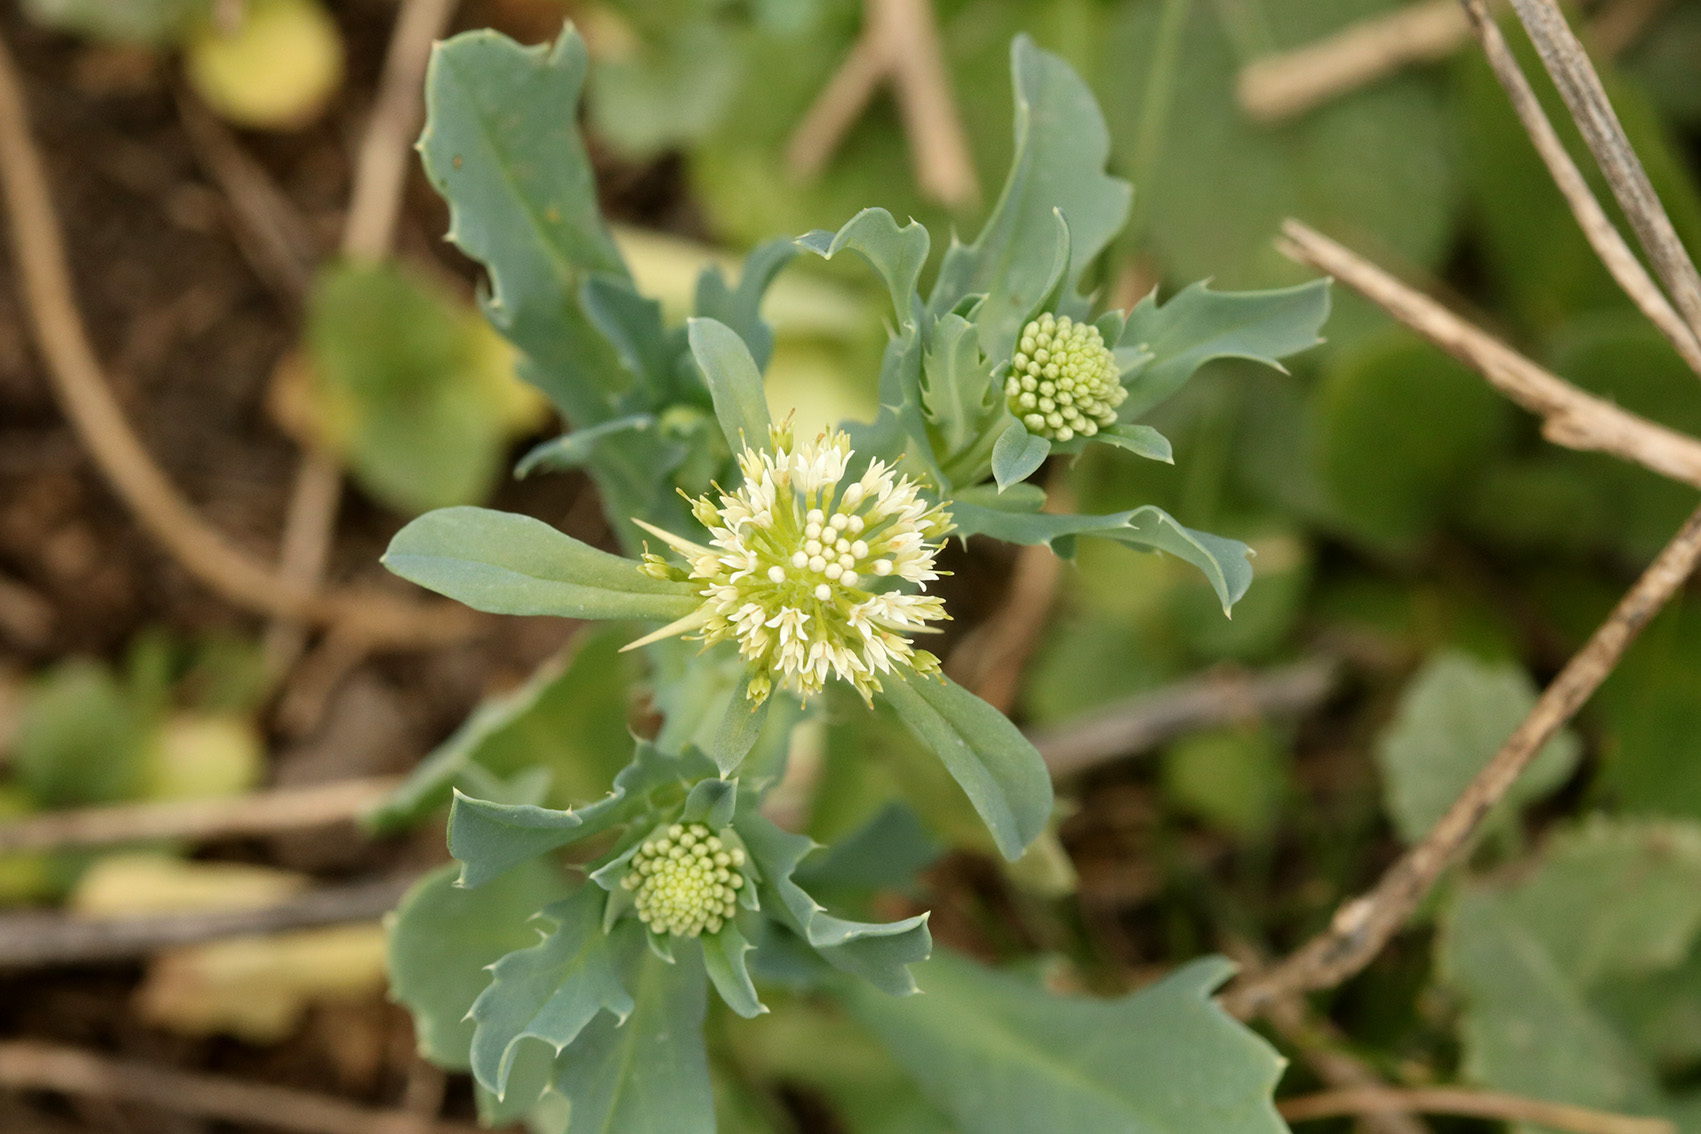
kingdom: Plantae
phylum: Tracheophyta
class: Magnoliopsida
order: Asterales
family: Calyceraceae
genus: Acicarpha
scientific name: Acicarpha tribuloides
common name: Madam gorgon
